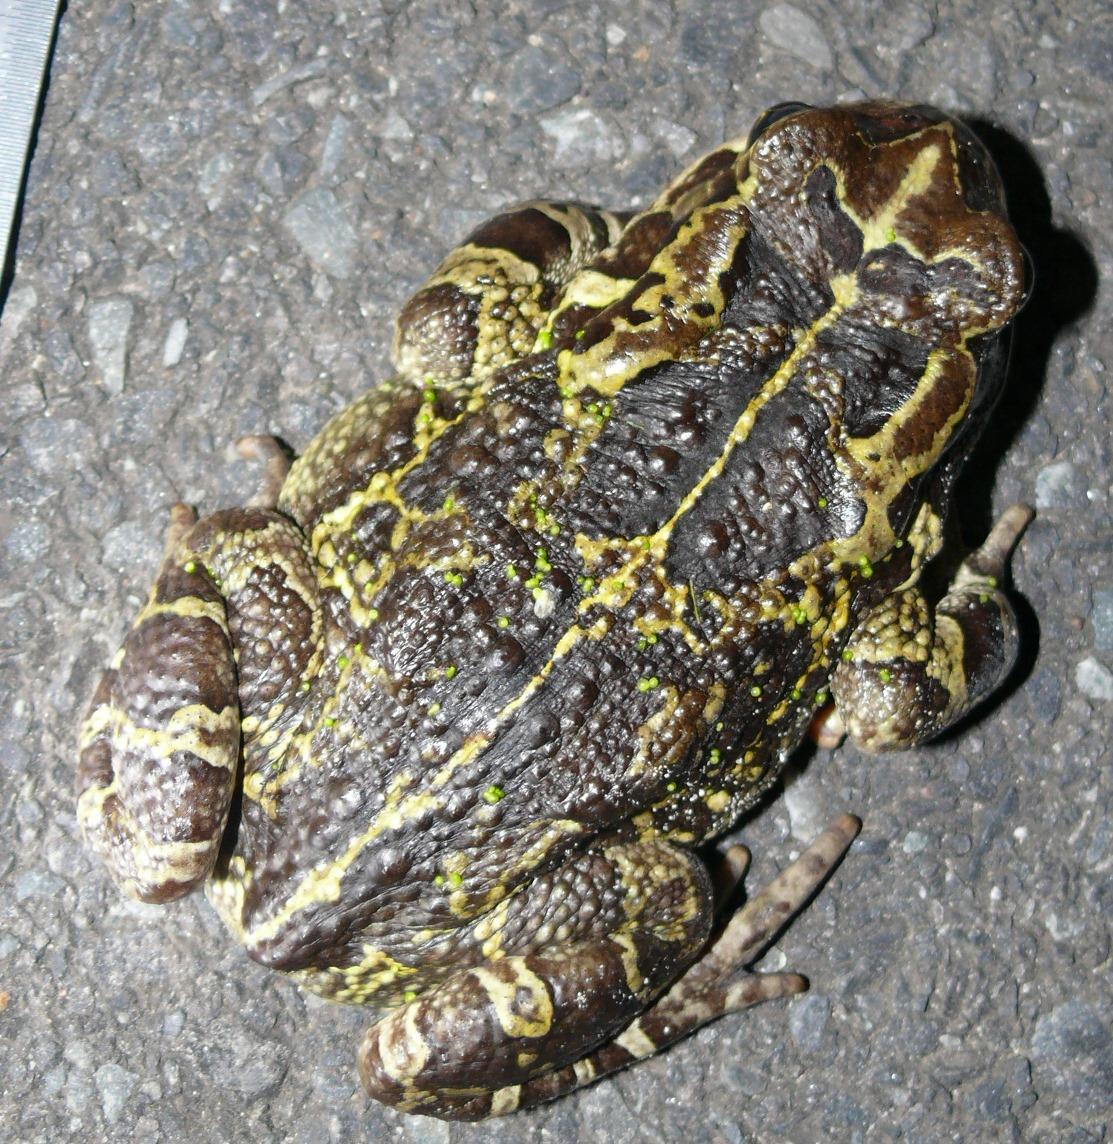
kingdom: Animalia
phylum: Chordata
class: Amphibia
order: Anura
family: Bufonidae
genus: Sclerophrys
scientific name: Sclerophrys pantherina
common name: Panther toad
